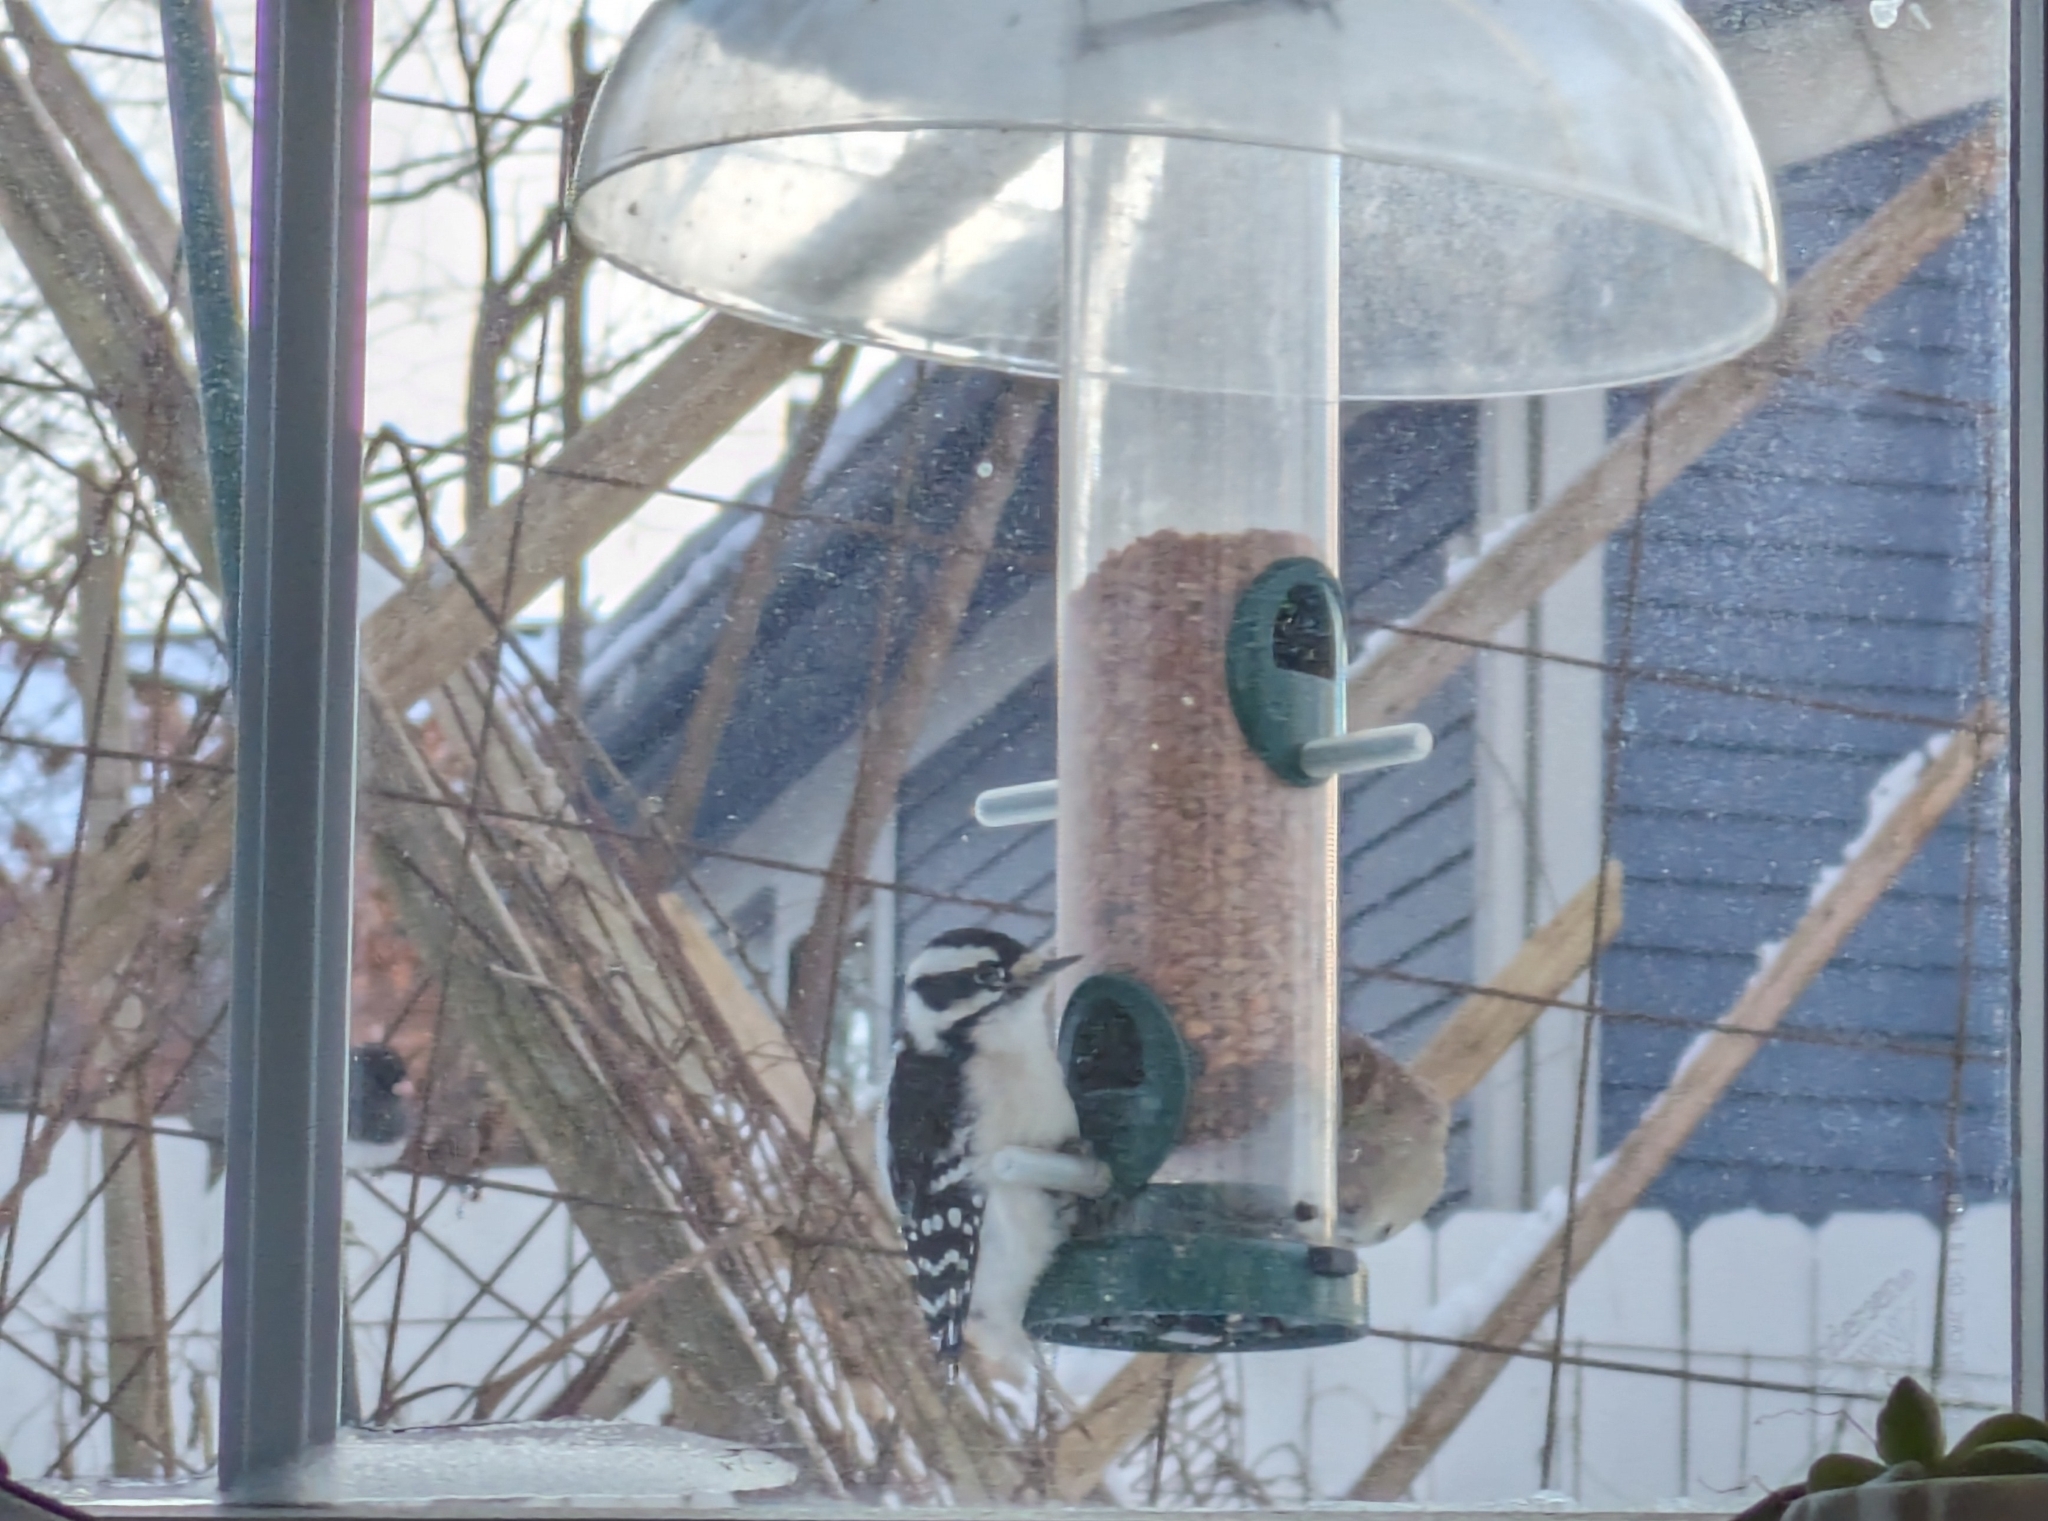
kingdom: Animalia
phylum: Chordata
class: Aves
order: Piciformes
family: Picidae
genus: Dryobates
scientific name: Dryobates pubescens
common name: Downy woodpecker
